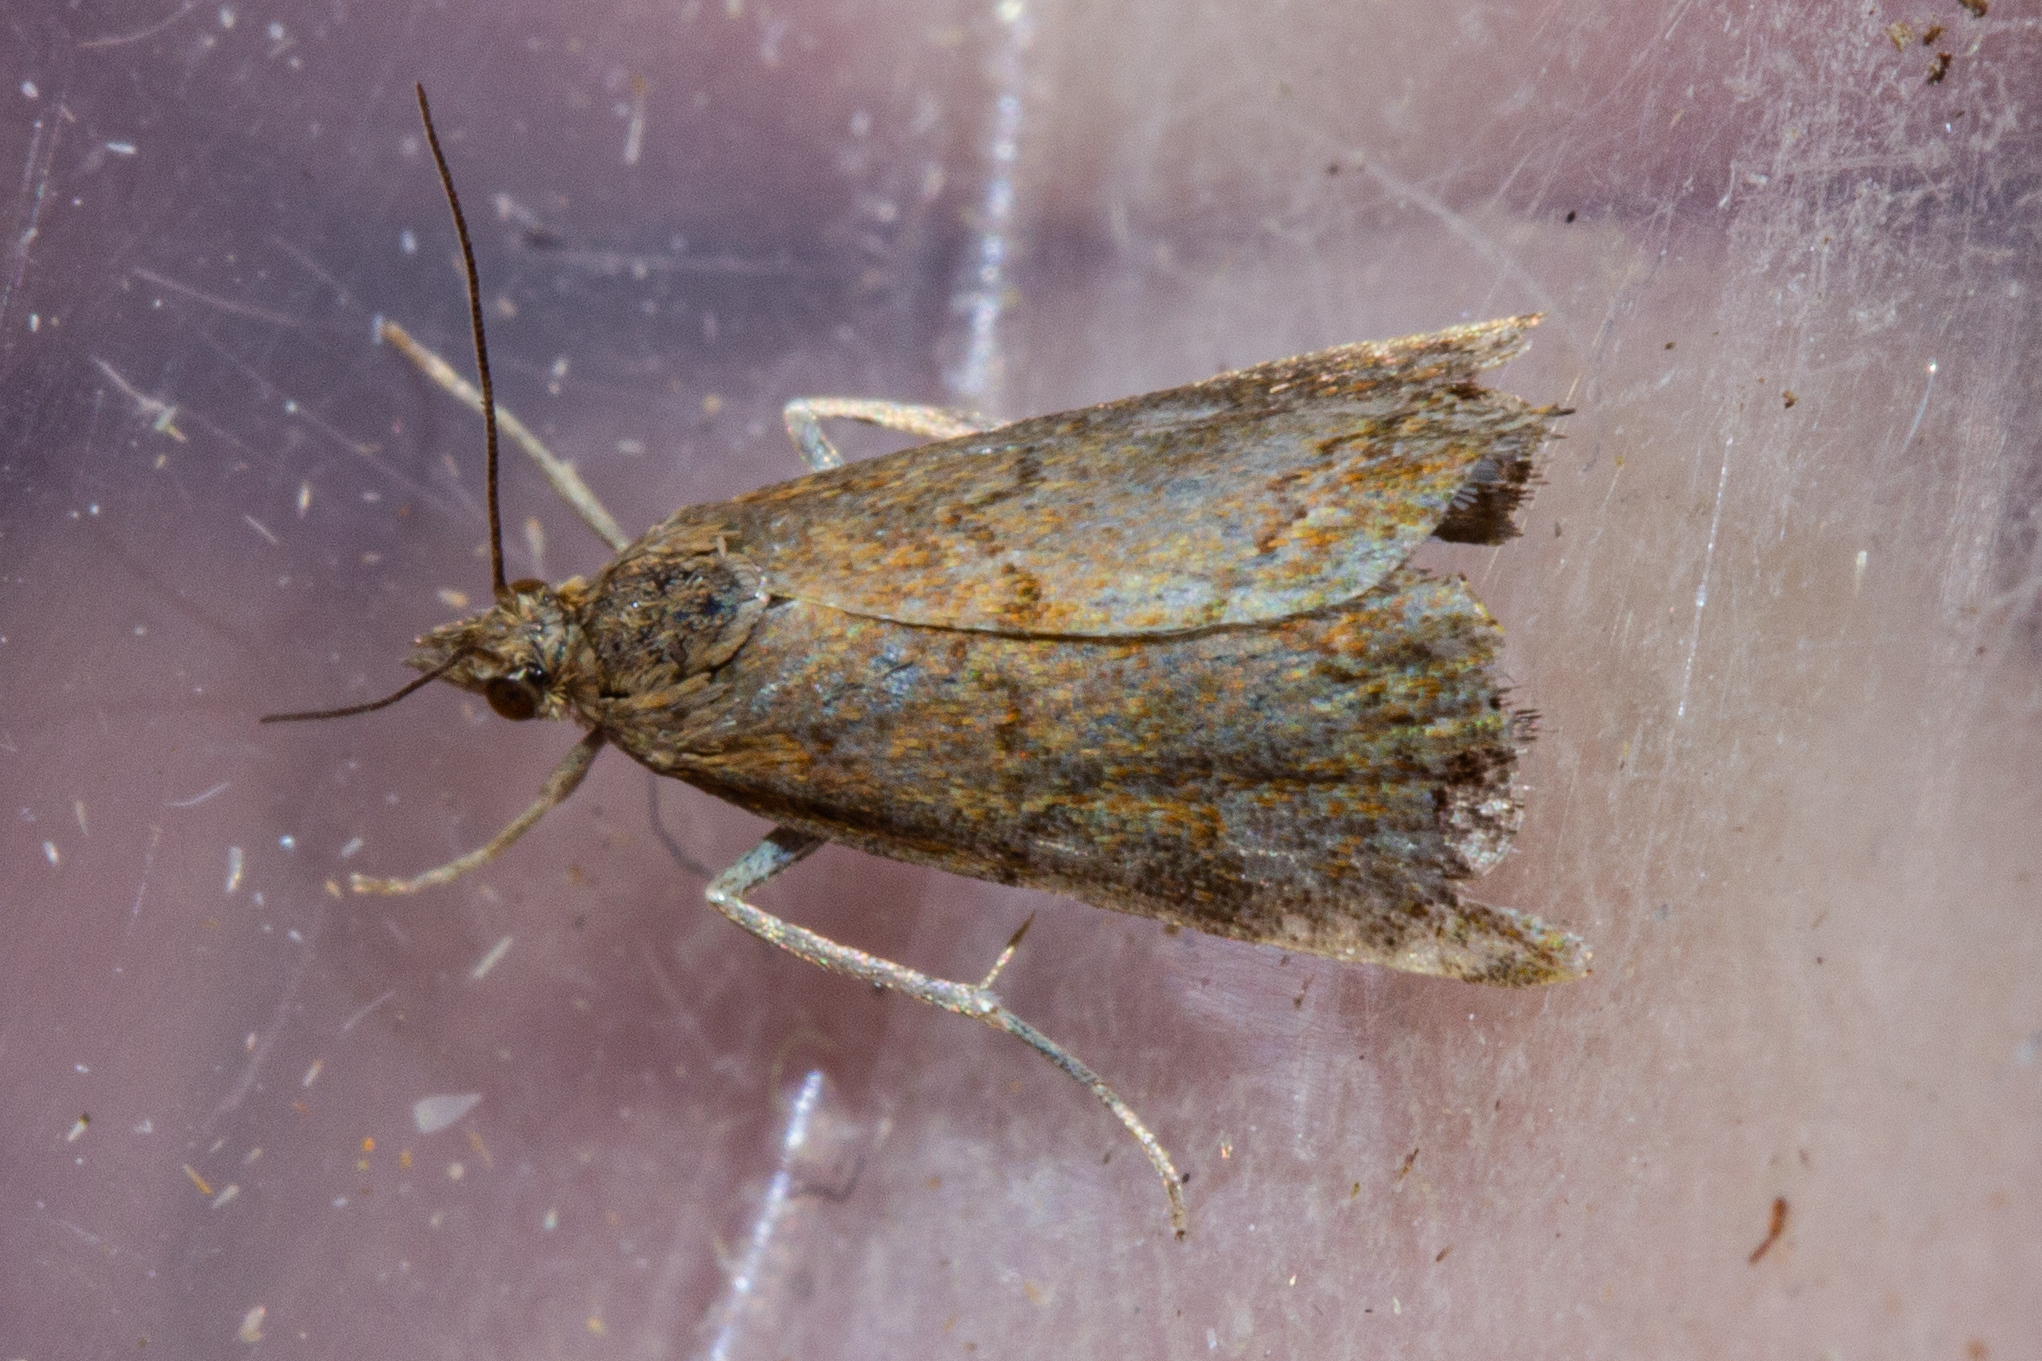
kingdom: Animalia
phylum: Arthropoda
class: Insecta
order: Lepidoptera
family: Crambidae
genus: Glaucocharis
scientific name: Glaucocharis epiphaea
